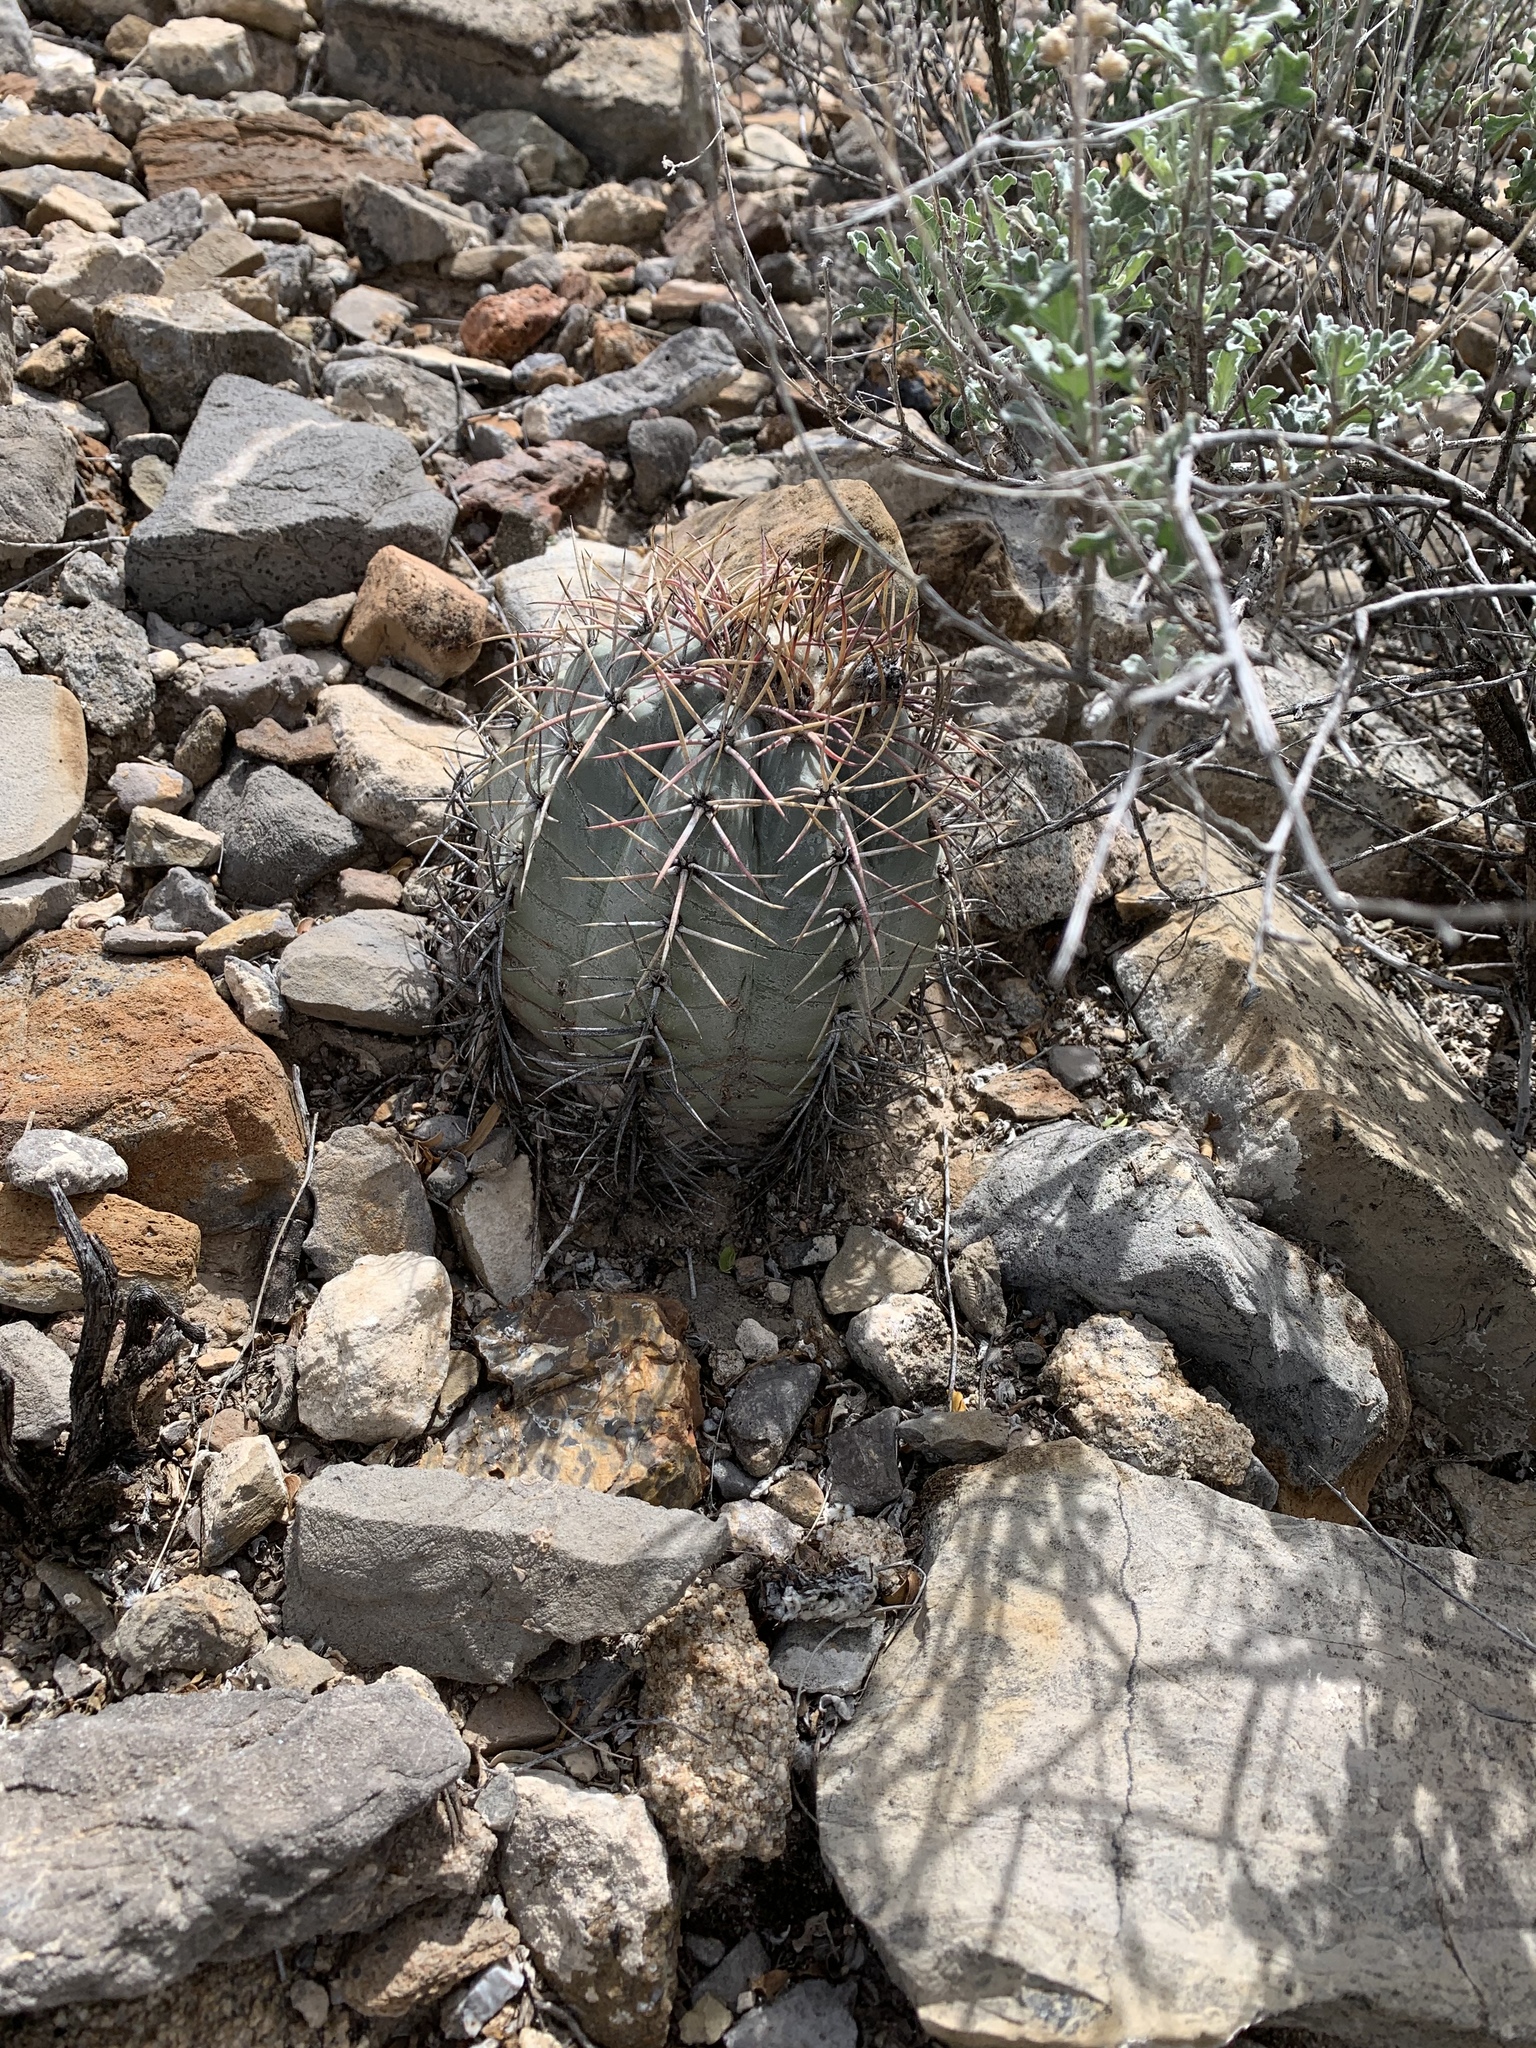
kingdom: Plantae
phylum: Tracheophyta
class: Magnoliopsida
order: Caryophyllales
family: Cactaceae
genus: Echinocactus
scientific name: Echinocactus horizonthalonius
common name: Devilshead
